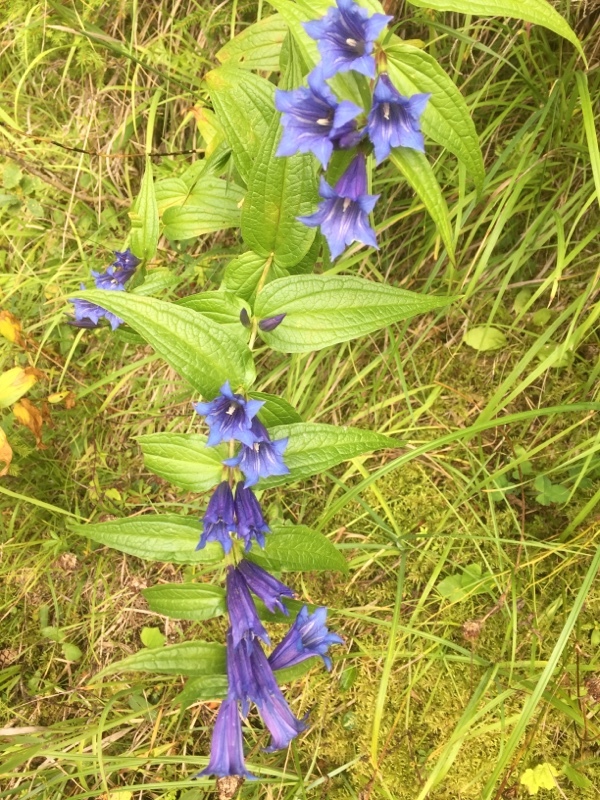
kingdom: Plantae
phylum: Tracheophyta
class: Magnoliopsida
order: Gentianales
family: Gentianaceae
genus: Gentiana
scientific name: Gentiana asclepiadea
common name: Willow gentian
